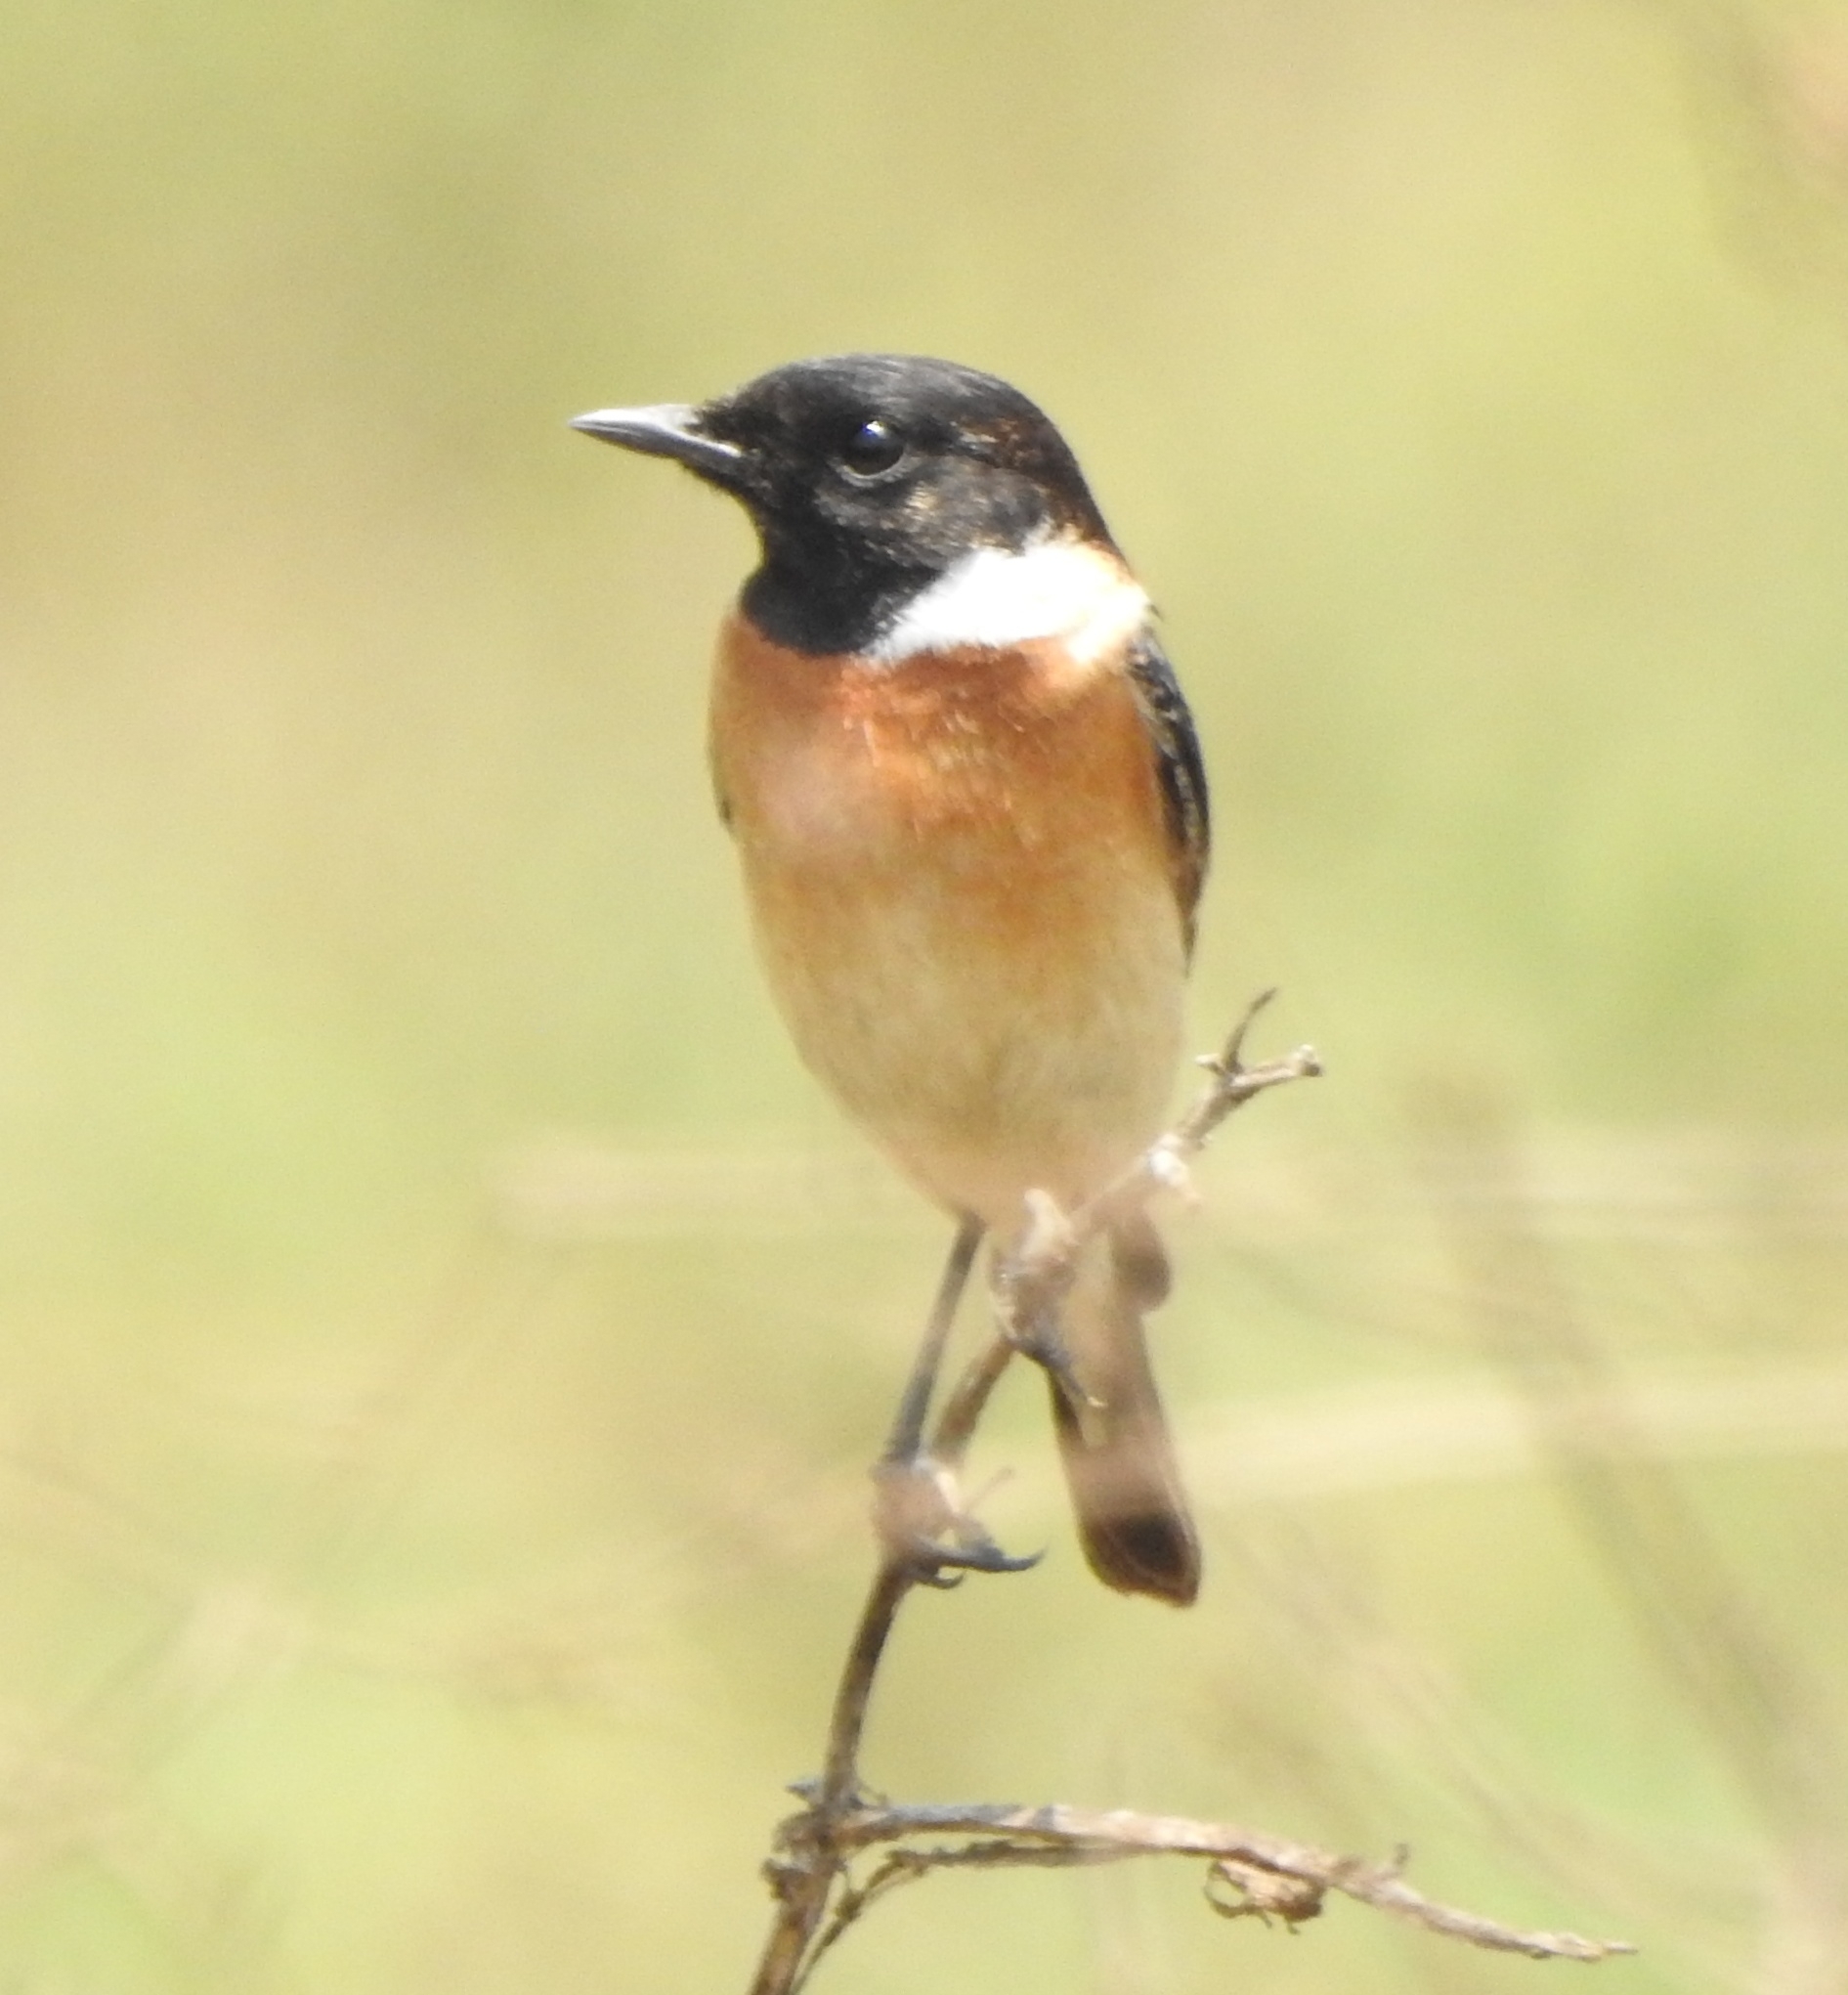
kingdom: Animalia
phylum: Chordata
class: Aves
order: Passeriformes
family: Muscicapidae
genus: Saxicola
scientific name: Saxicola maurus
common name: Siberian stonechat
